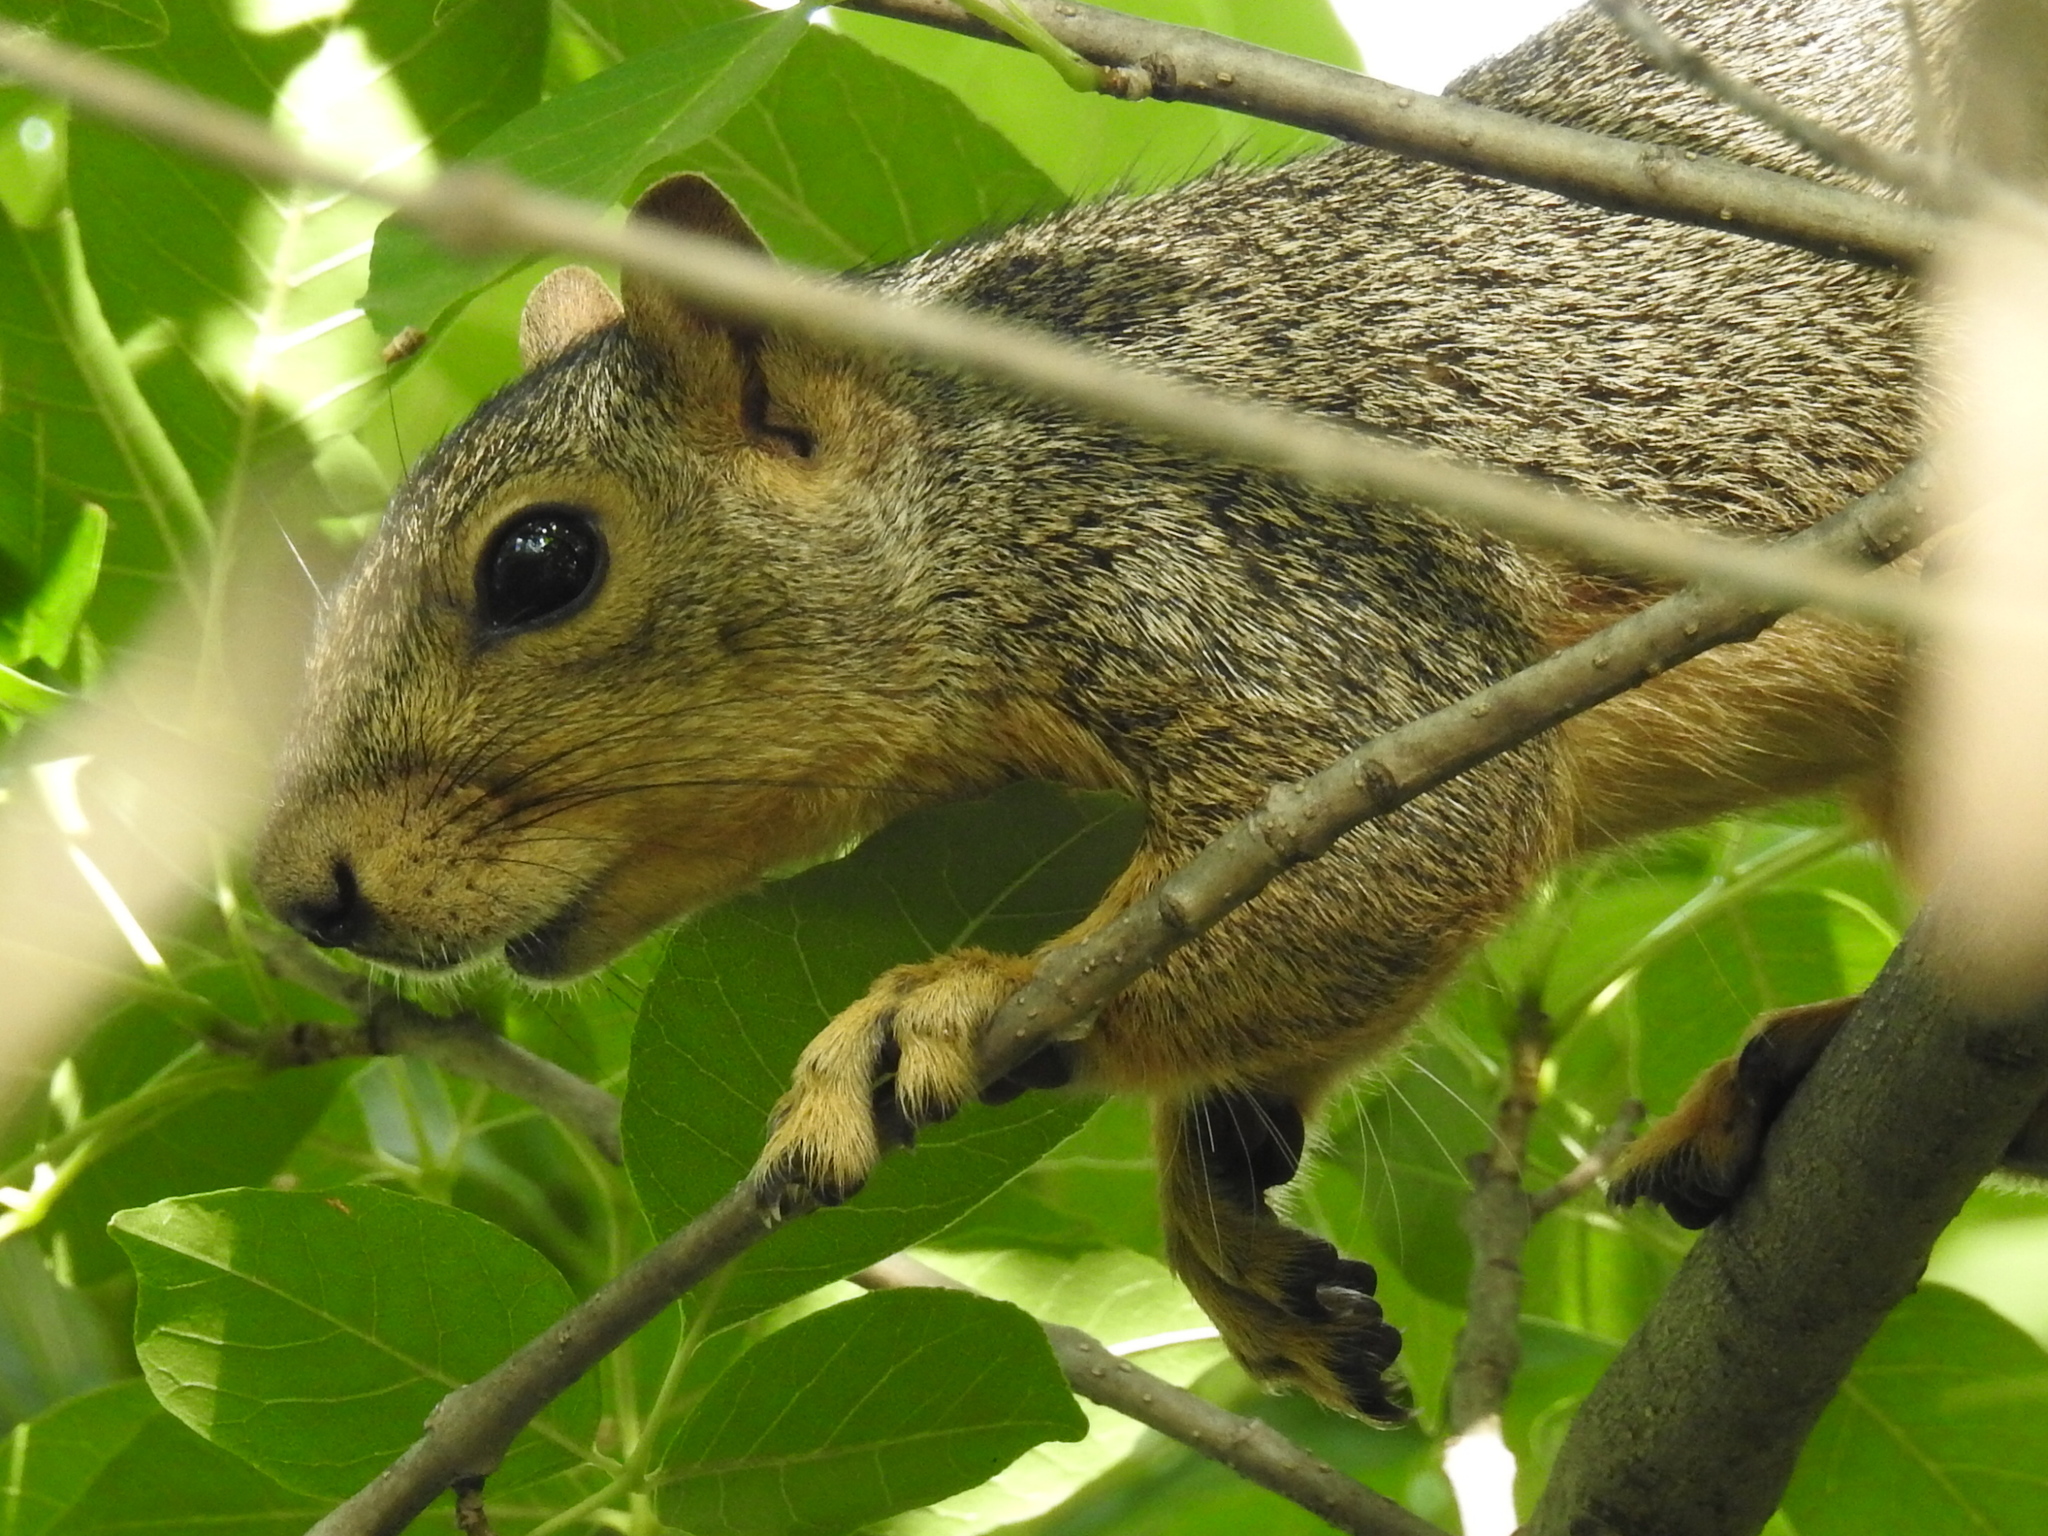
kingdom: Animalia
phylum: Chordata
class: Mammalia
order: Rodentia
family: Sciuridae
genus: Sciurus
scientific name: Sciurus niger
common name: Fox squirrel
